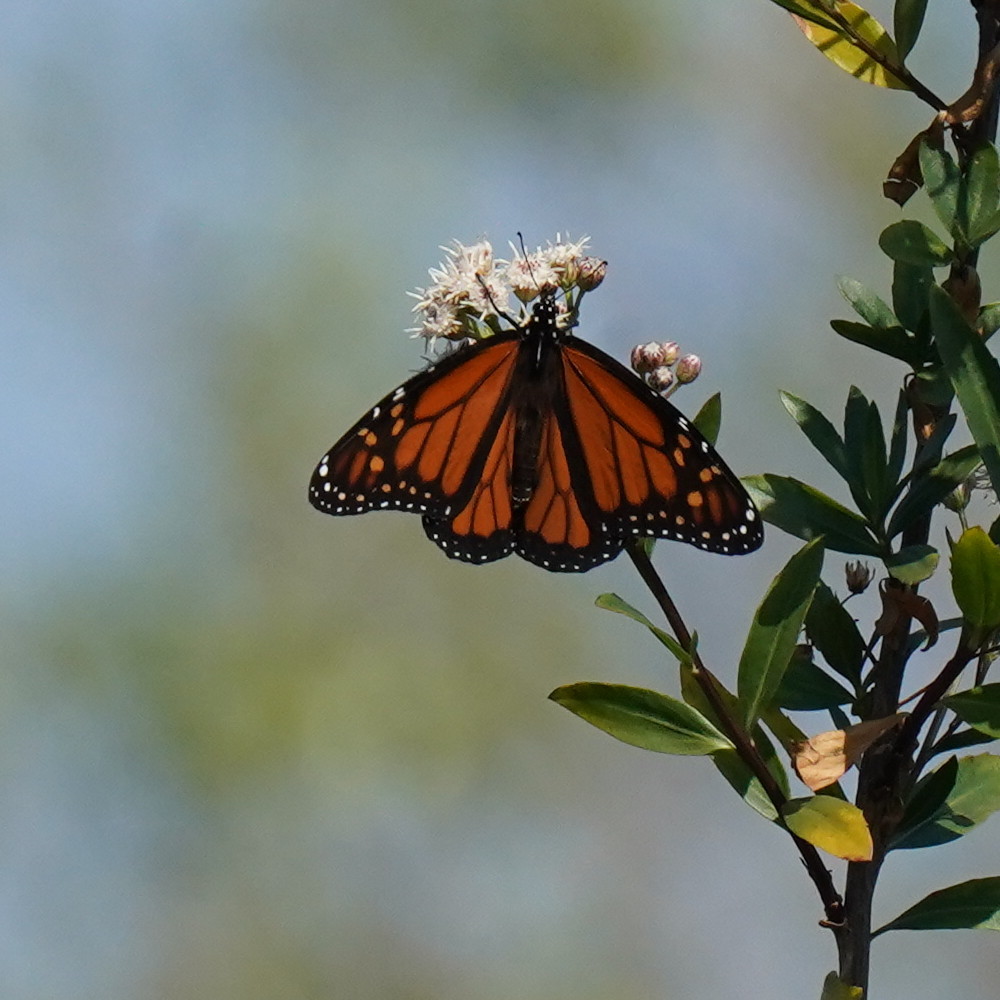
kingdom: Animalia
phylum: Arthropoda
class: Insecta
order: Lepidoptera
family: Nymphalidae
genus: Danaus
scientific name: Danaus plexippus
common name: Monarch
